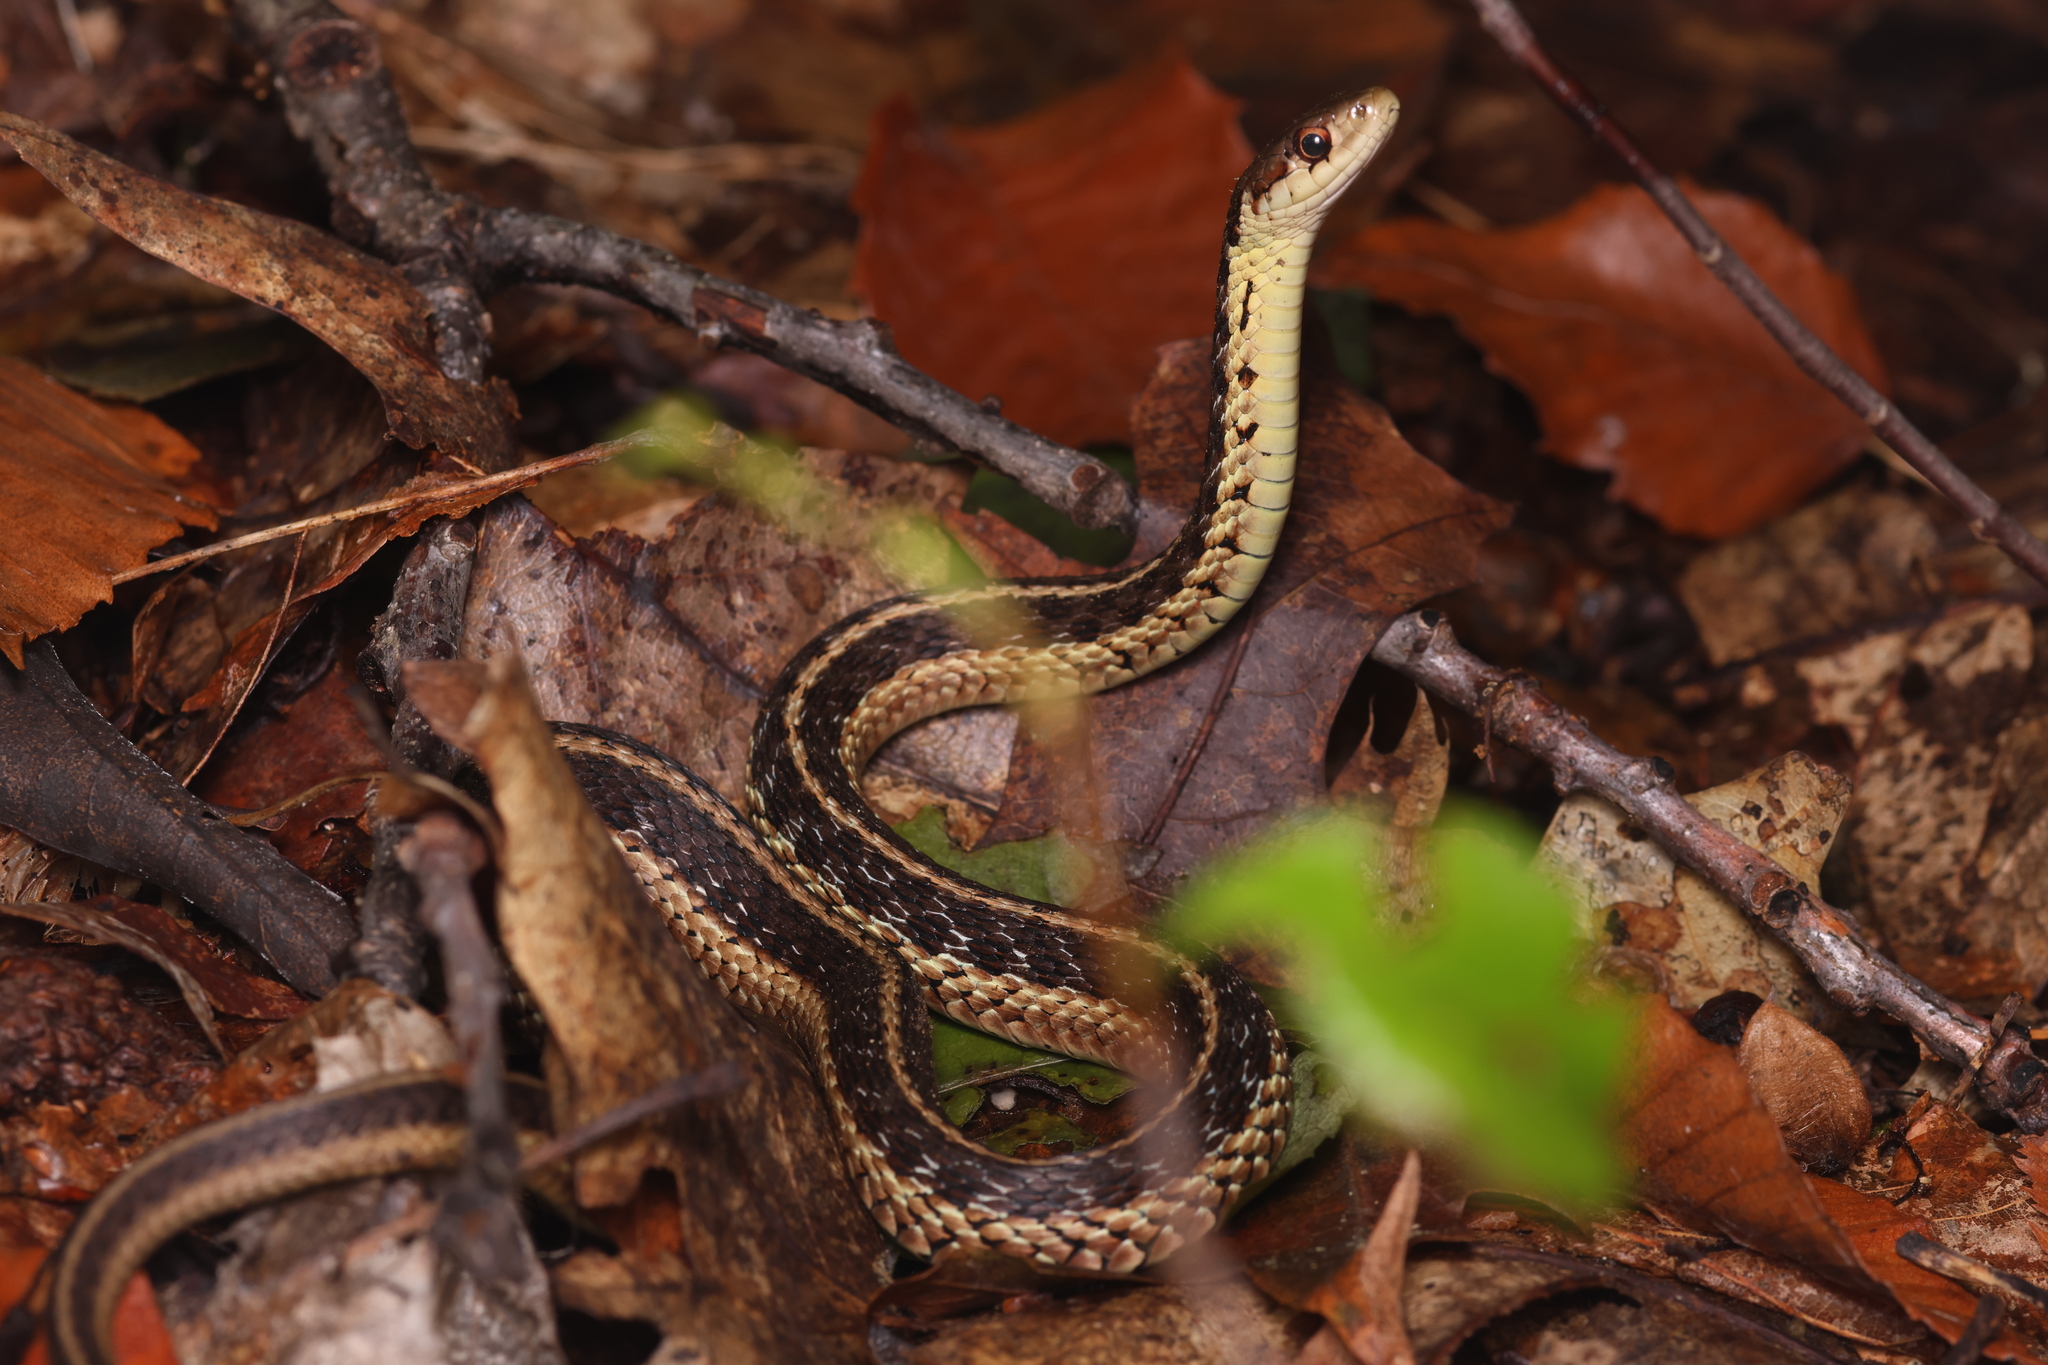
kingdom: Animalia
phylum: Chordata
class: Squamata
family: Colubridae
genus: Thamnophis
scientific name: Thamnophis sirtalis
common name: Common garter snake
